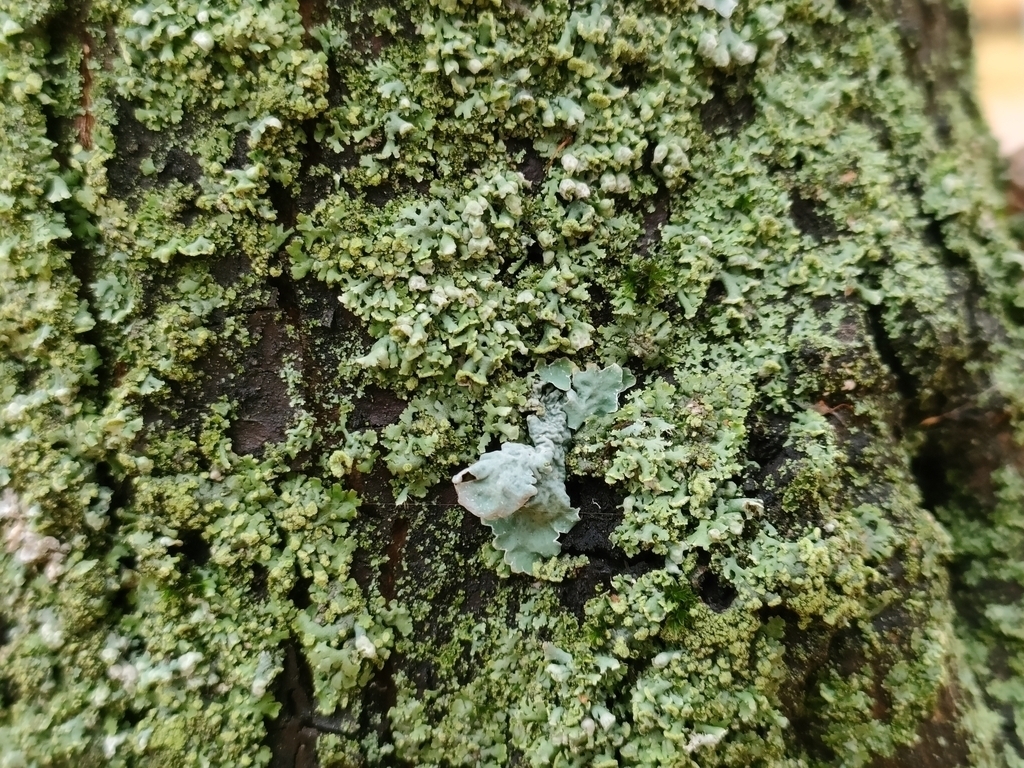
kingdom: Fungi
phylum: Ascomycota
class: Lecanoromycetes
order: Caliciales
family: Physciaceae
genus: Physcia
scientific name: Physcia adscendens
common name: Hooded rosette lichen
